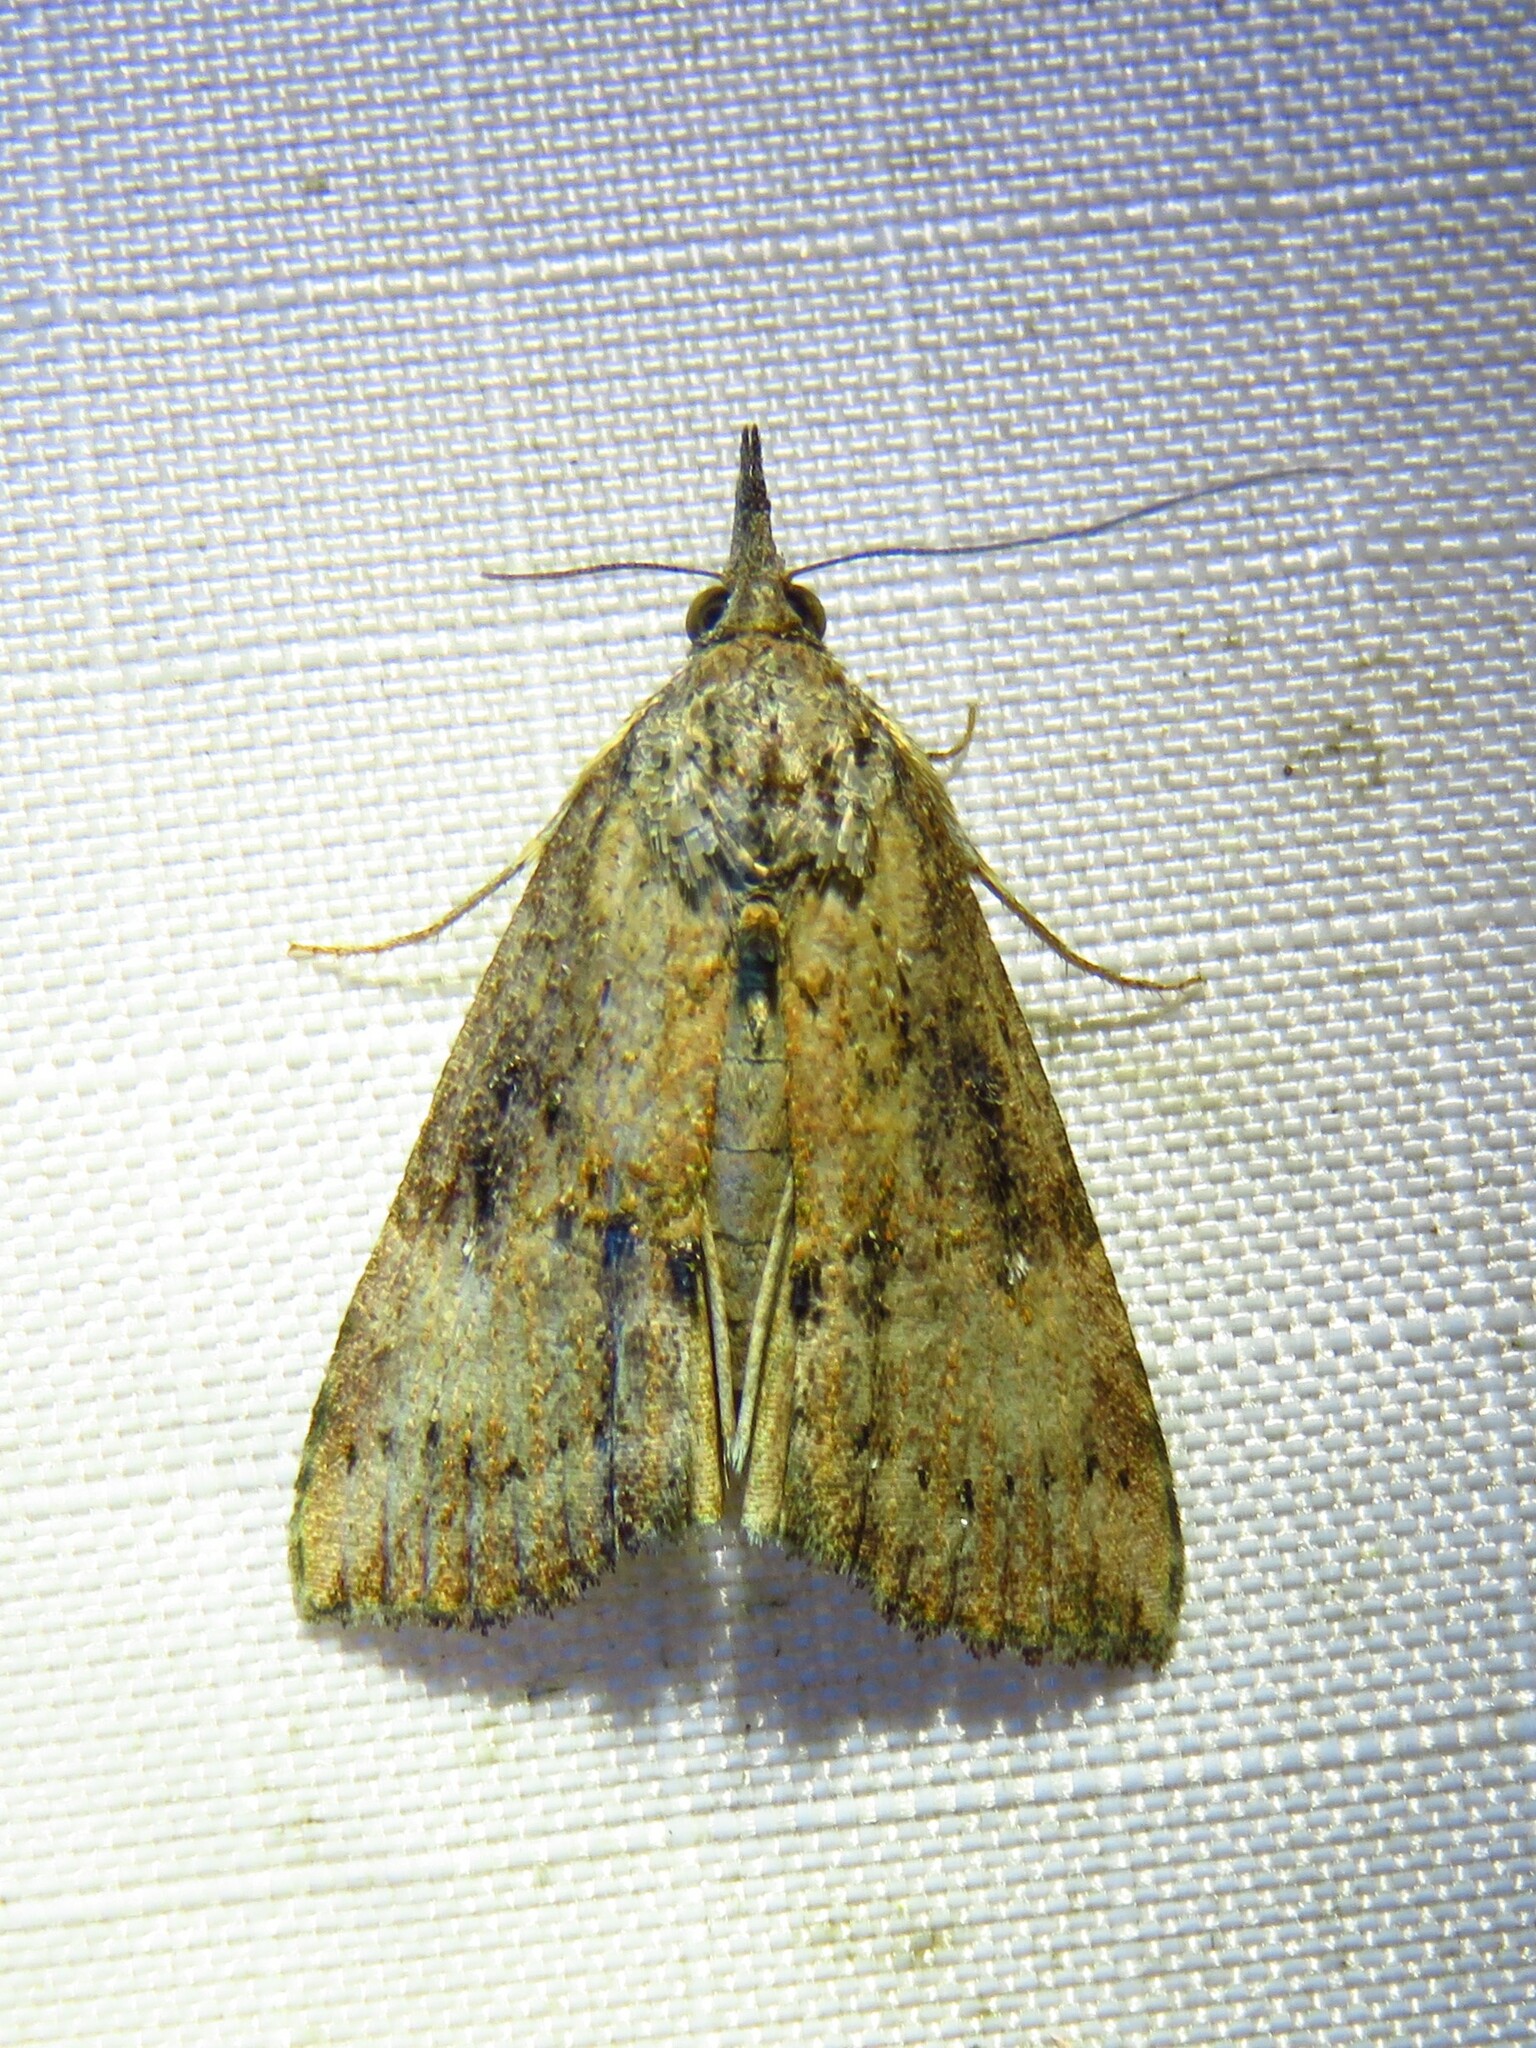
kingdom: Animalia
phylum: Arthropoda
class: Insecta
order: Lepidoptera
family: Erebidae
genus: Hypena
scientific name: Hypena scabra
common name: Green cloverworm
